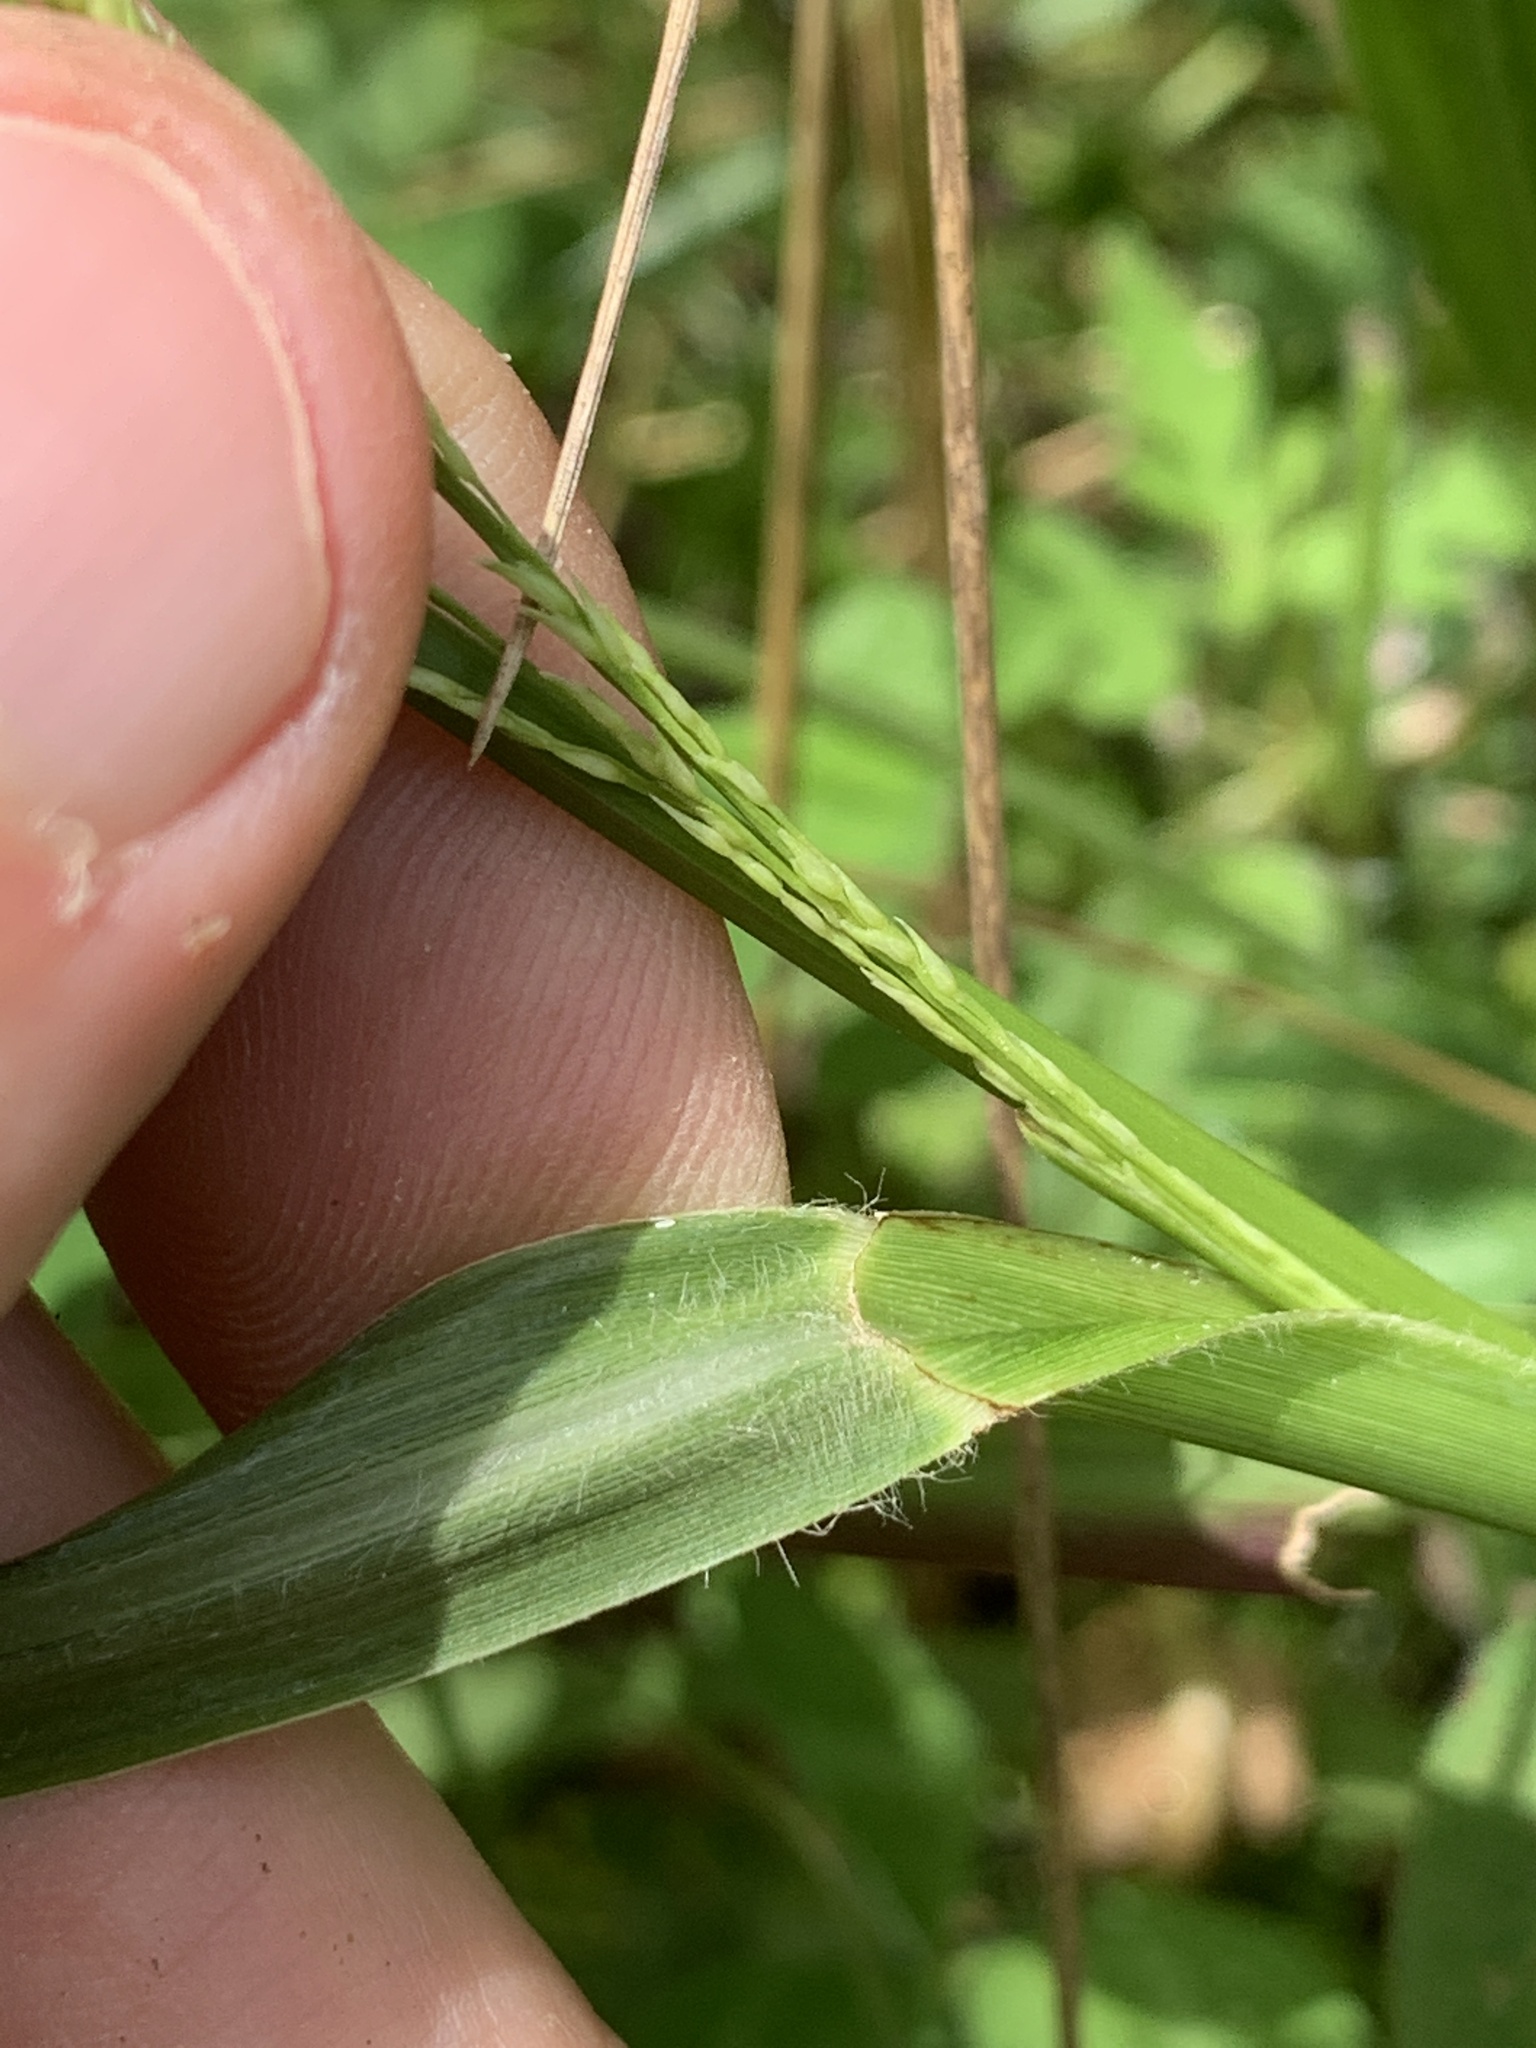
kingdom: Plantae
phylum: Tracheophyta
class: Liliopsida
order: Poales
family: Poaceae
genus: Coleataenia
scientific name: Coleataenia anceps
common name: Beaked panic grass
